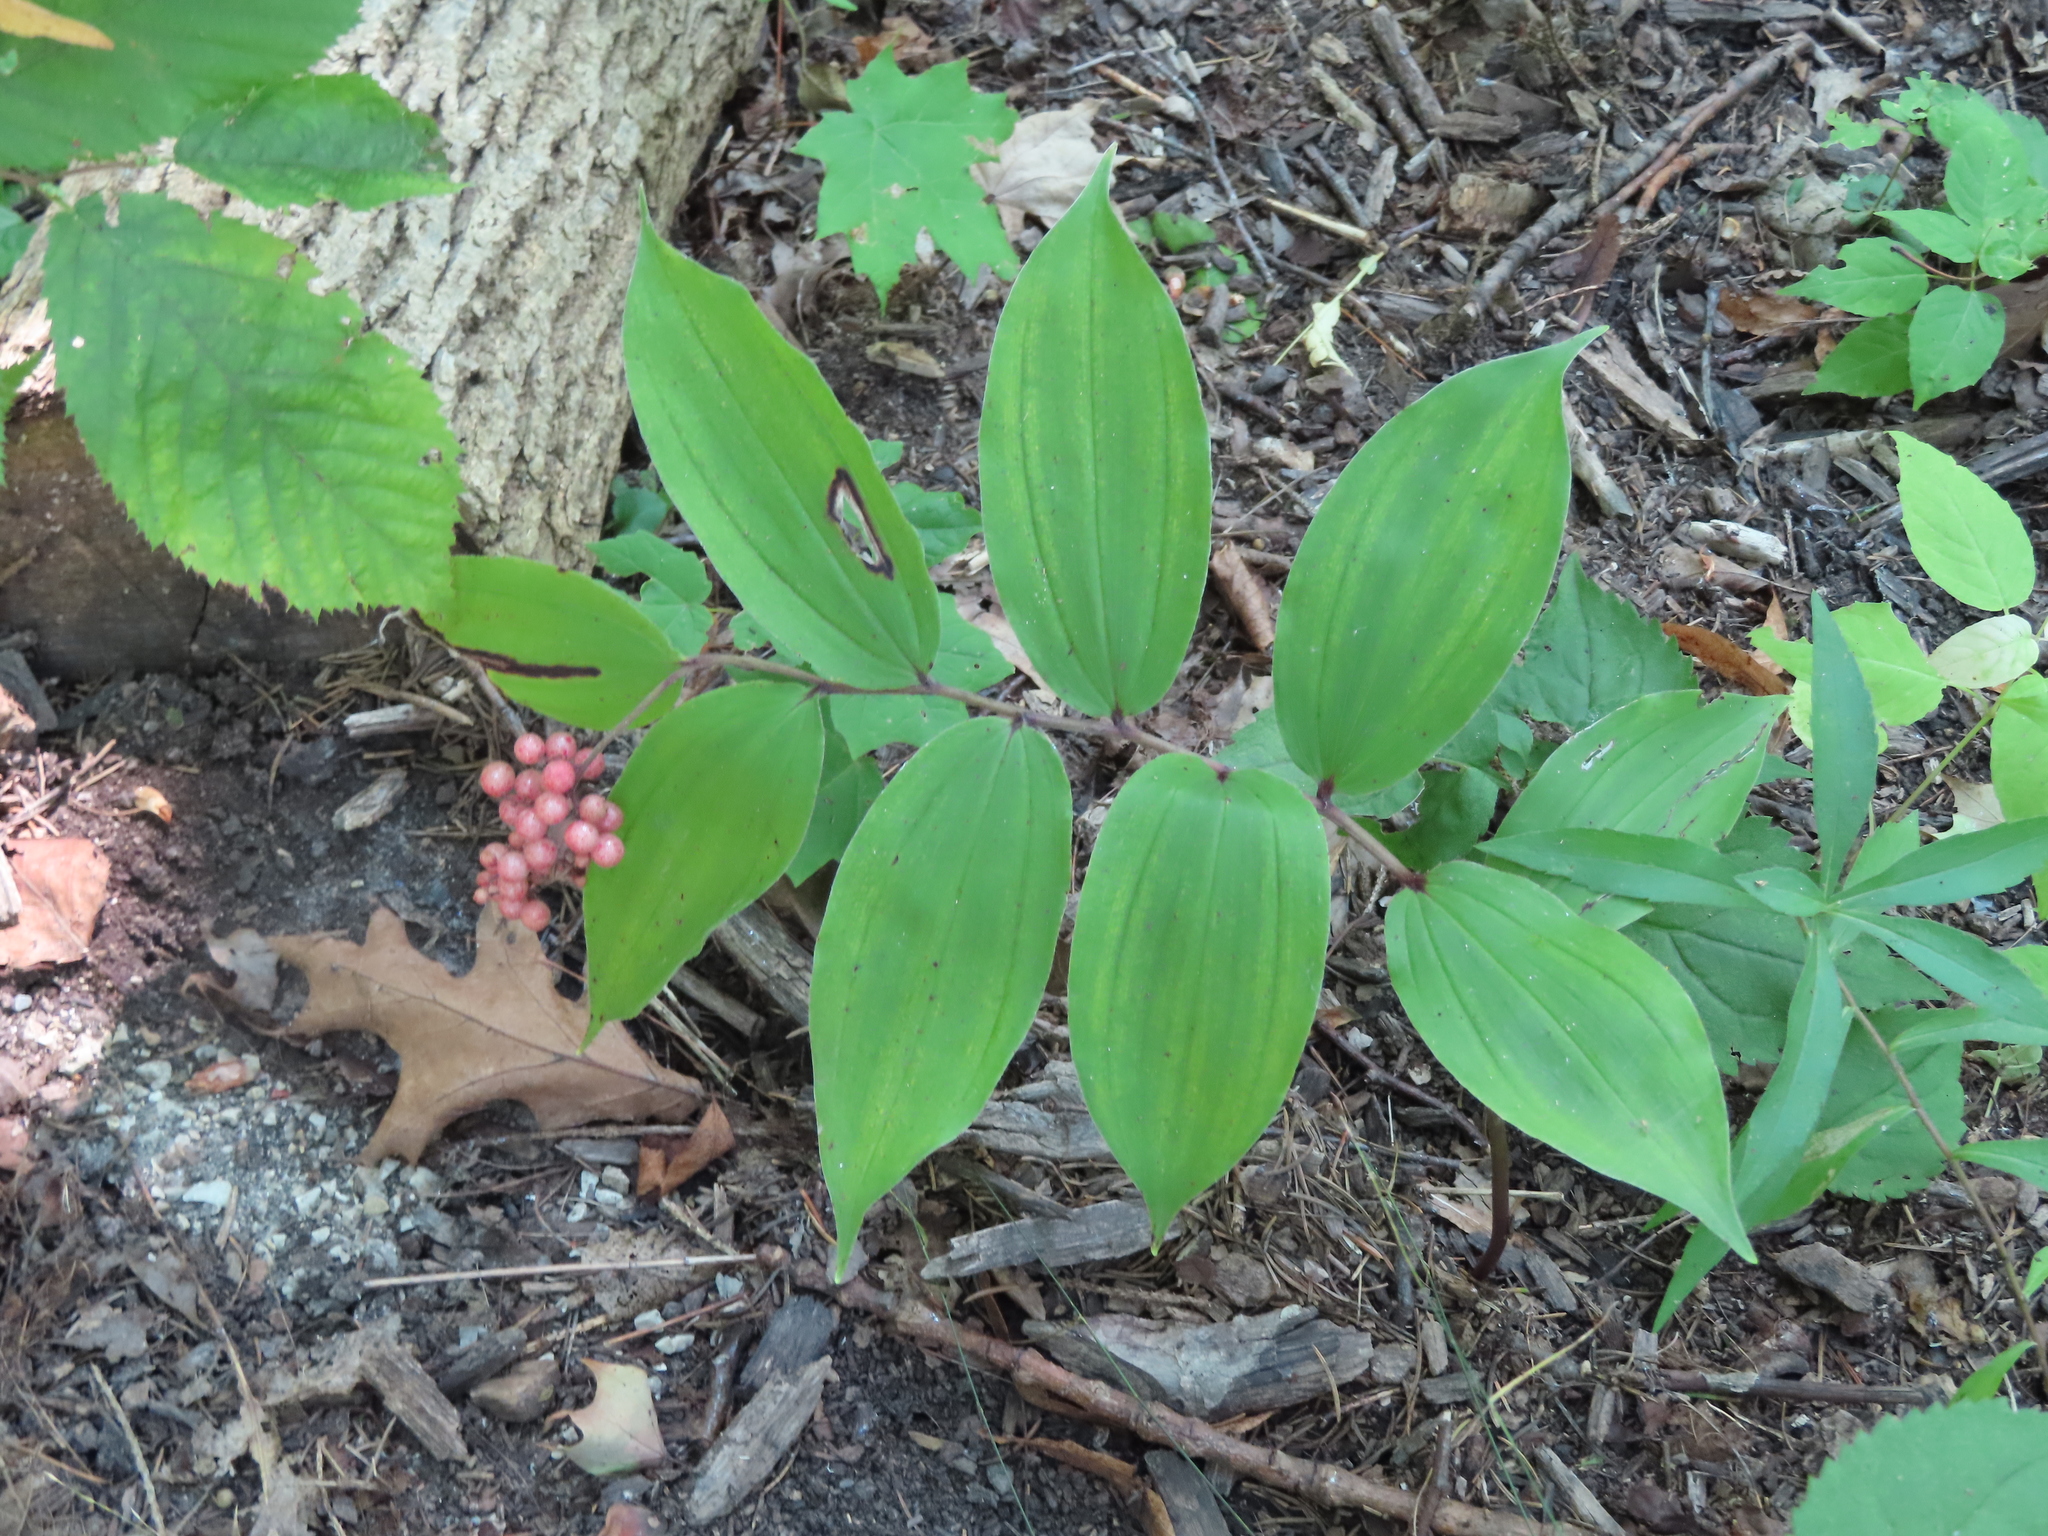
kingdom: Plantae
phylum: Tracheophyta
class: Liliopsida
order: Asparagales
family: Asparagaceae
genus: Maianthemum
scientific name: Maianthemum racemosum
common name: False spikenard
